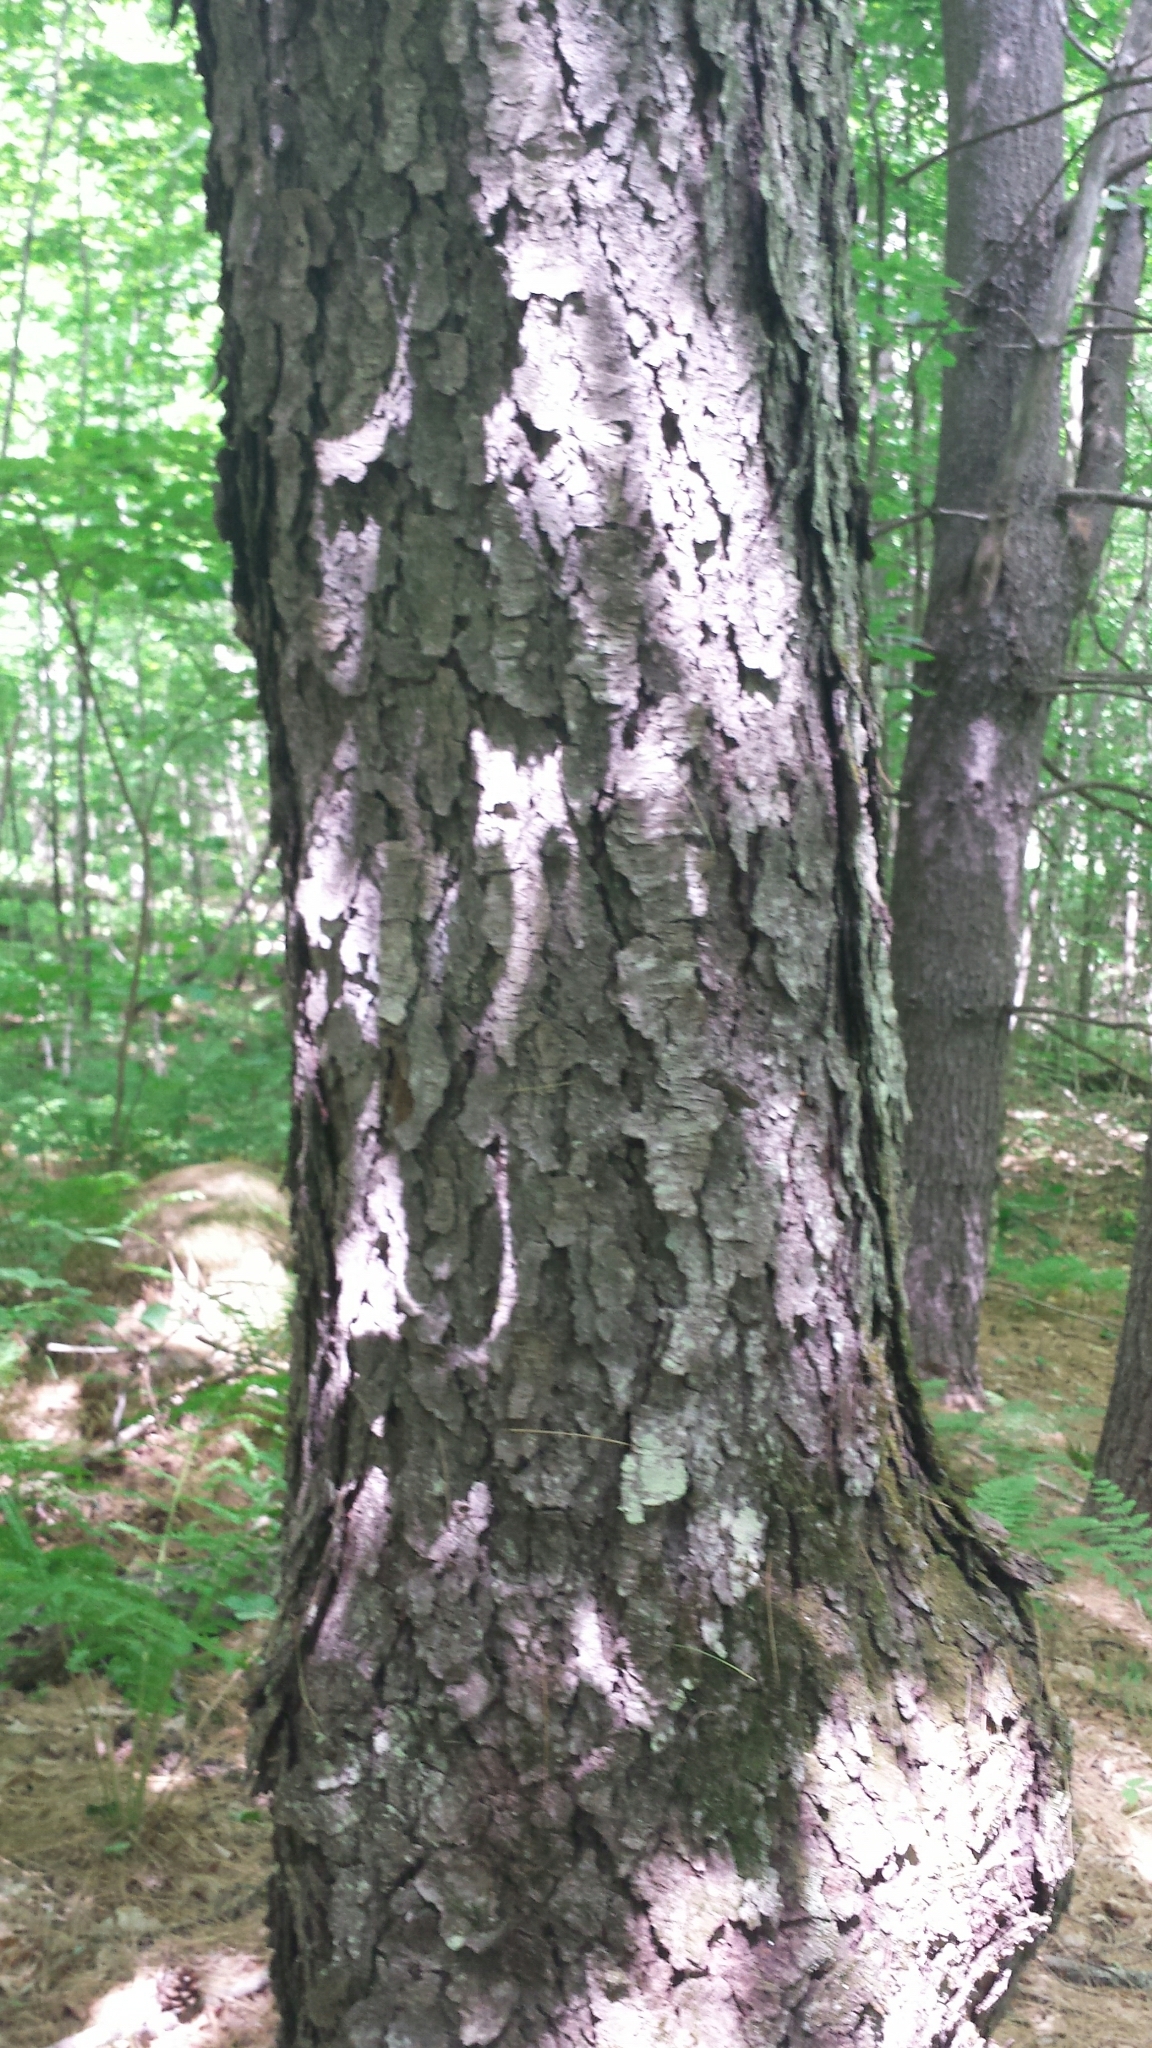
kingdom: Plantae
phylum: Tracheophyta
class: Magnoliopsida
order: Rosales
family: Rosaceae
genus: Prunus
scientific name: Prunus serotina
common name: Black cherry
